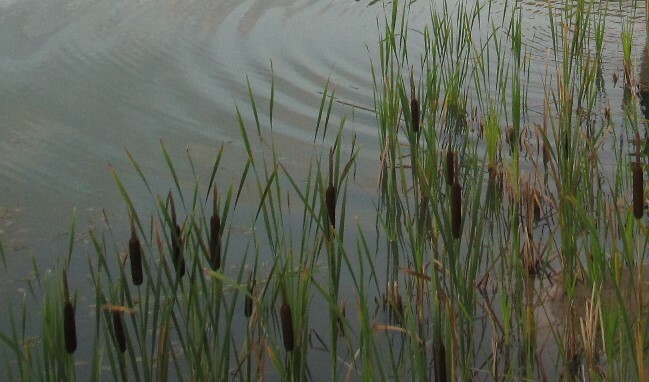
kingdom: Plantae
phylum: Tracheophyta
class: Liliopsida
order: Poales
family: Typhaceae
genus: Typha
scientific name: Typha latifolia
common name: Broadleaf cattail
